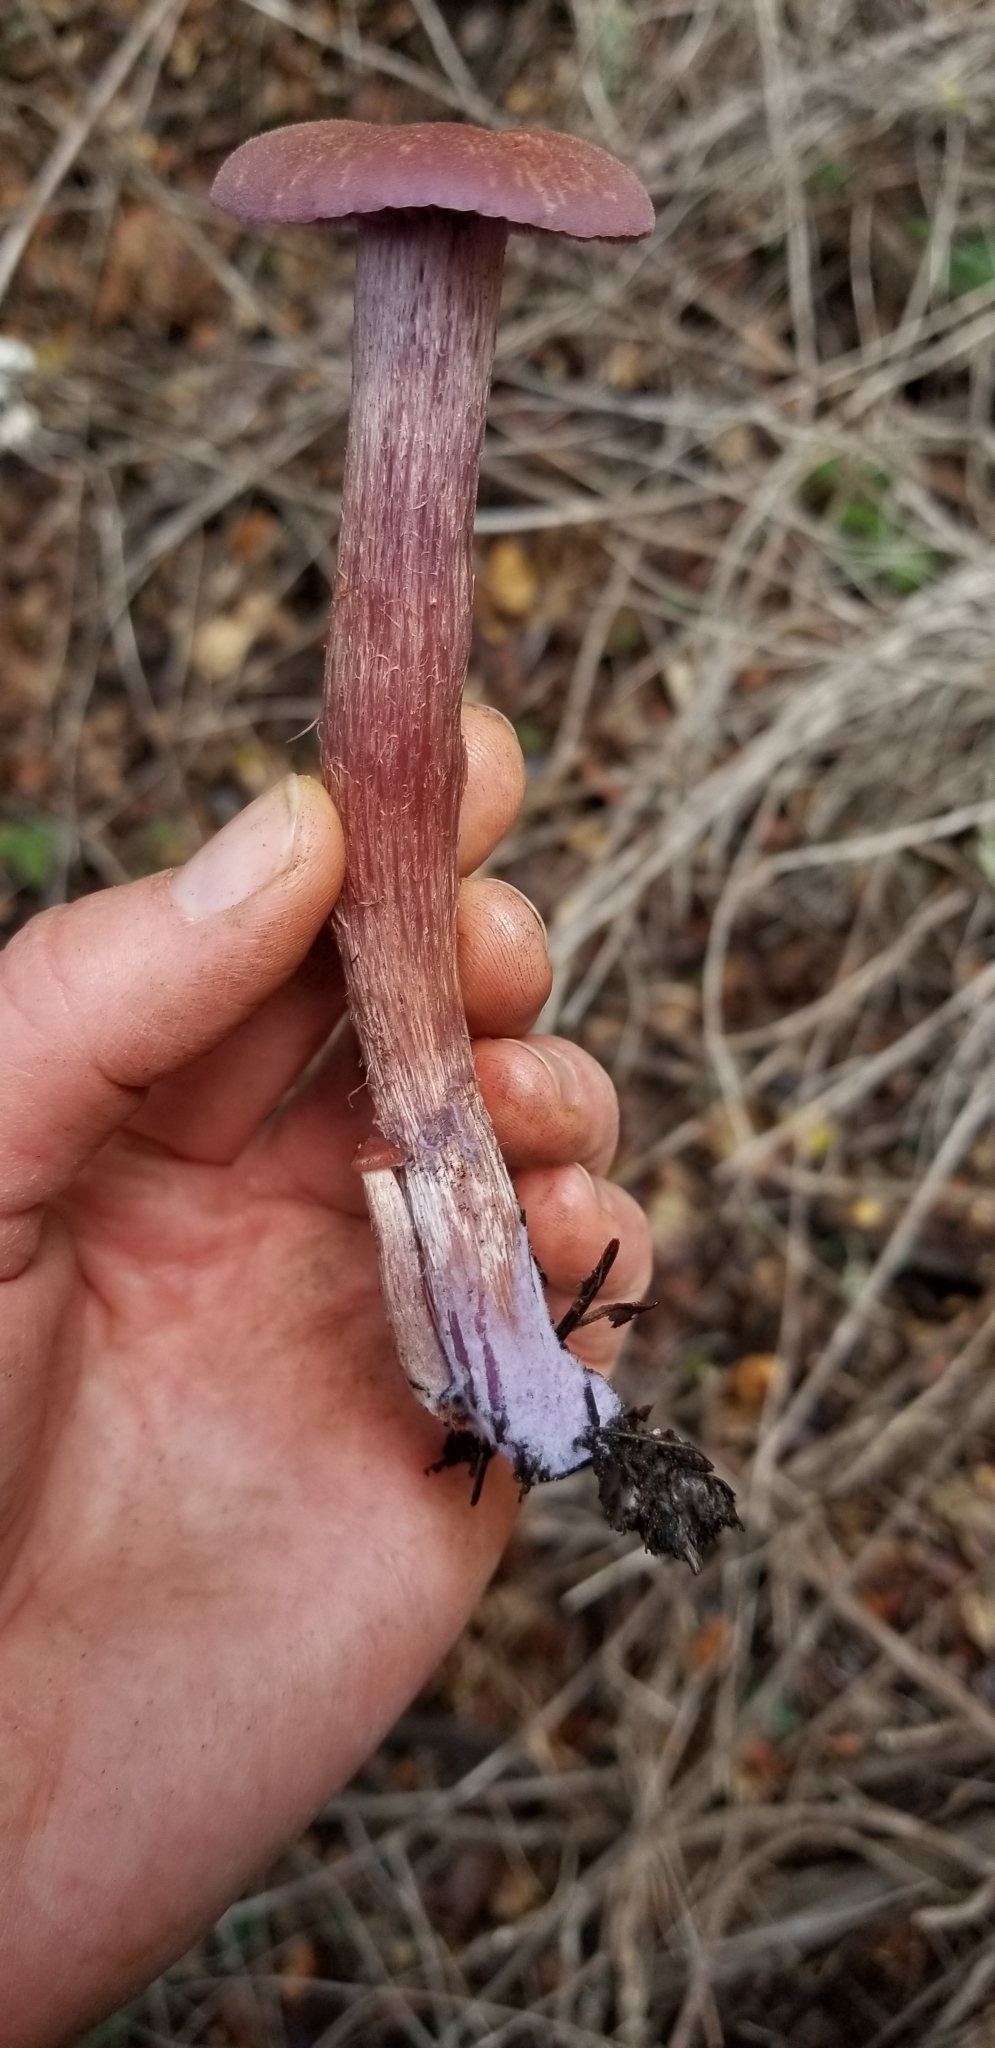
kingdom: Fungi
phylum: Basidiomycota
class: Agaricomycetes
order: Agaricales
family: Hydnangiaceae
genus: Laccaria
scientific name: Laccaria amethysteo-occidentalis
